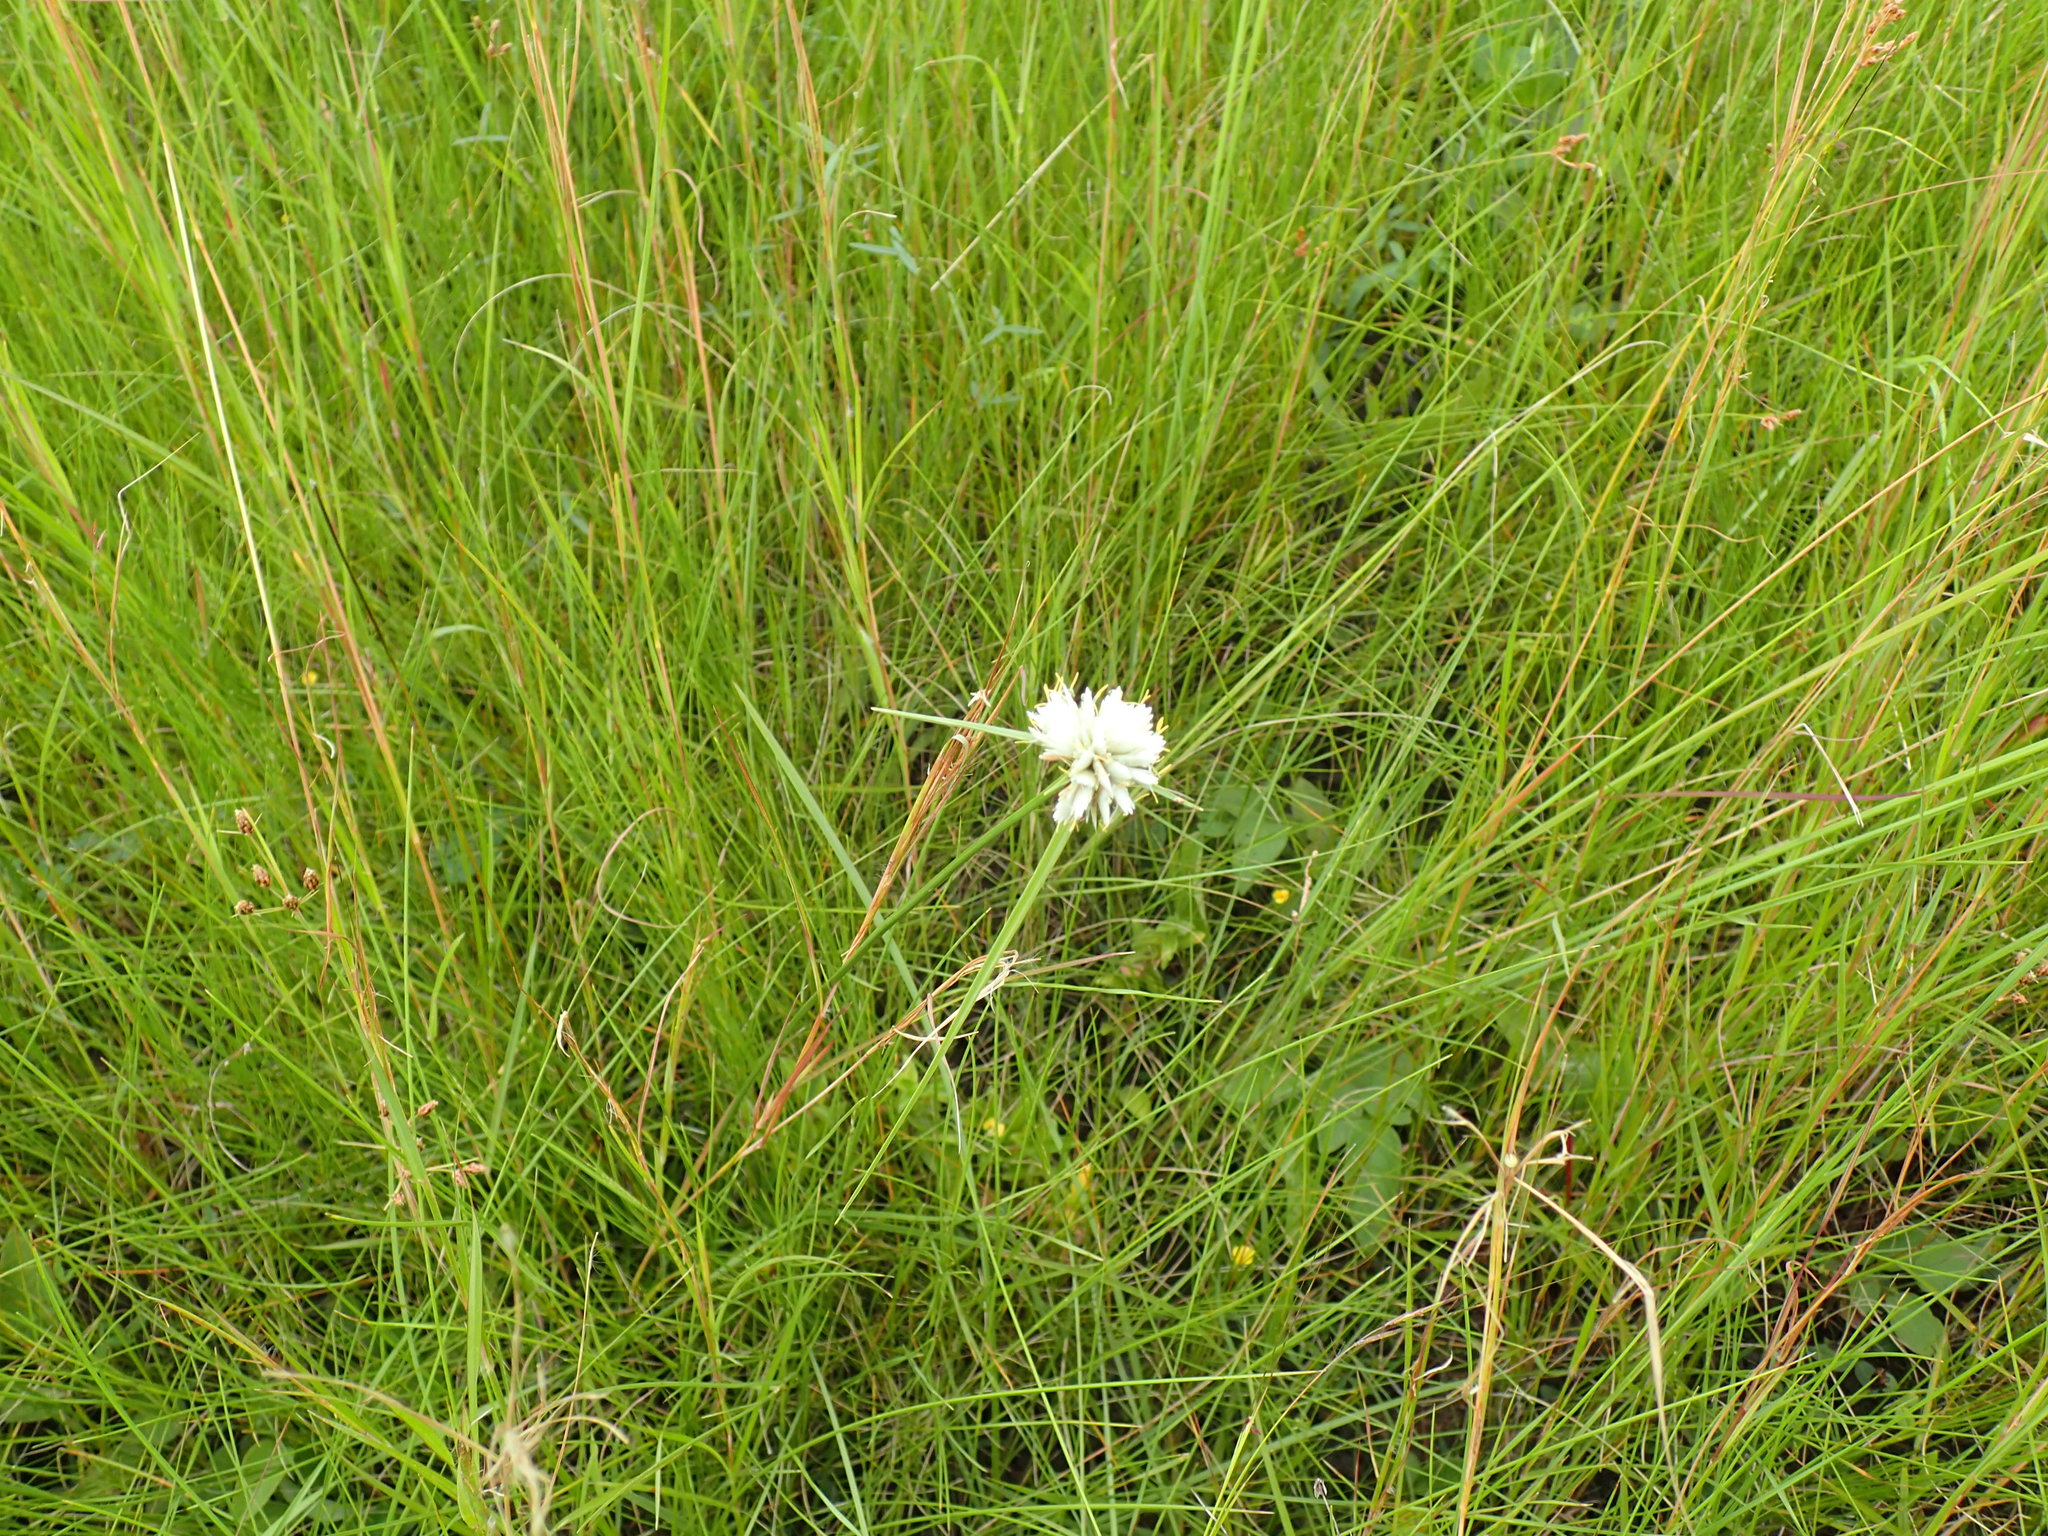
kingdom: Plantae
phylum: Tracheophyta
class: Liliopsida
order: Poales
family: Cyperaceae
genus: Cyperus
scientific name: Cyperus niveus
